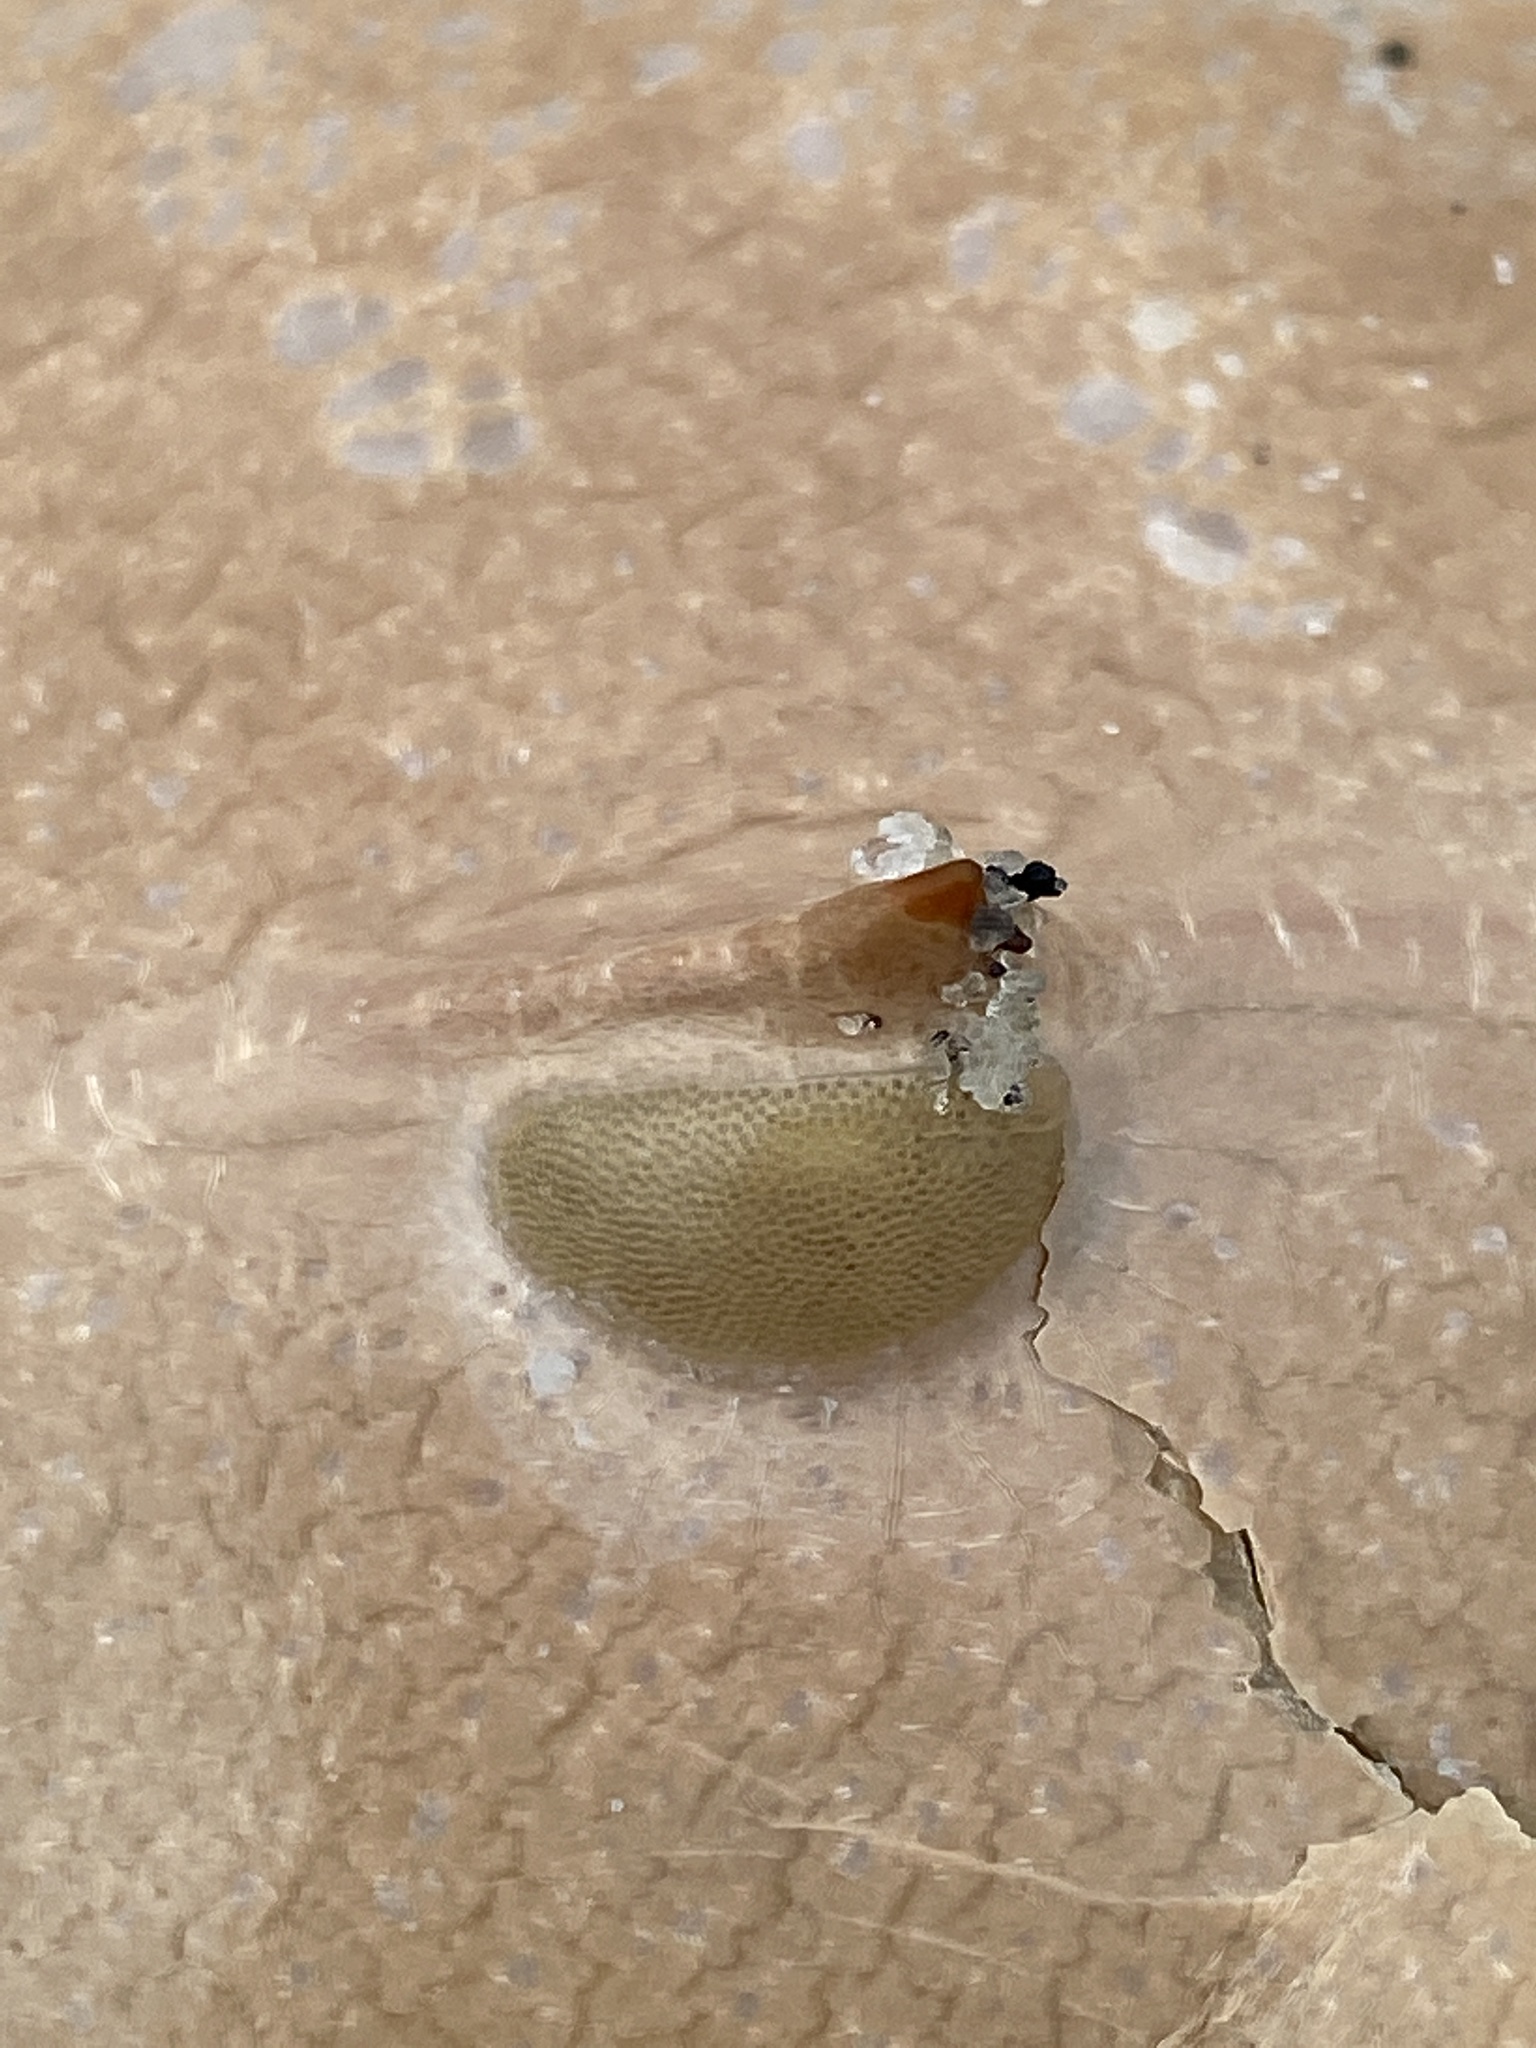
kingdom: Animalia
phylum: Arthropoda
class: Merostomata
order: Xiphosurida
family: Limulidae
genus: Limulus
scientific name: Limulus polyphemus
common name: Horseshoe crab
